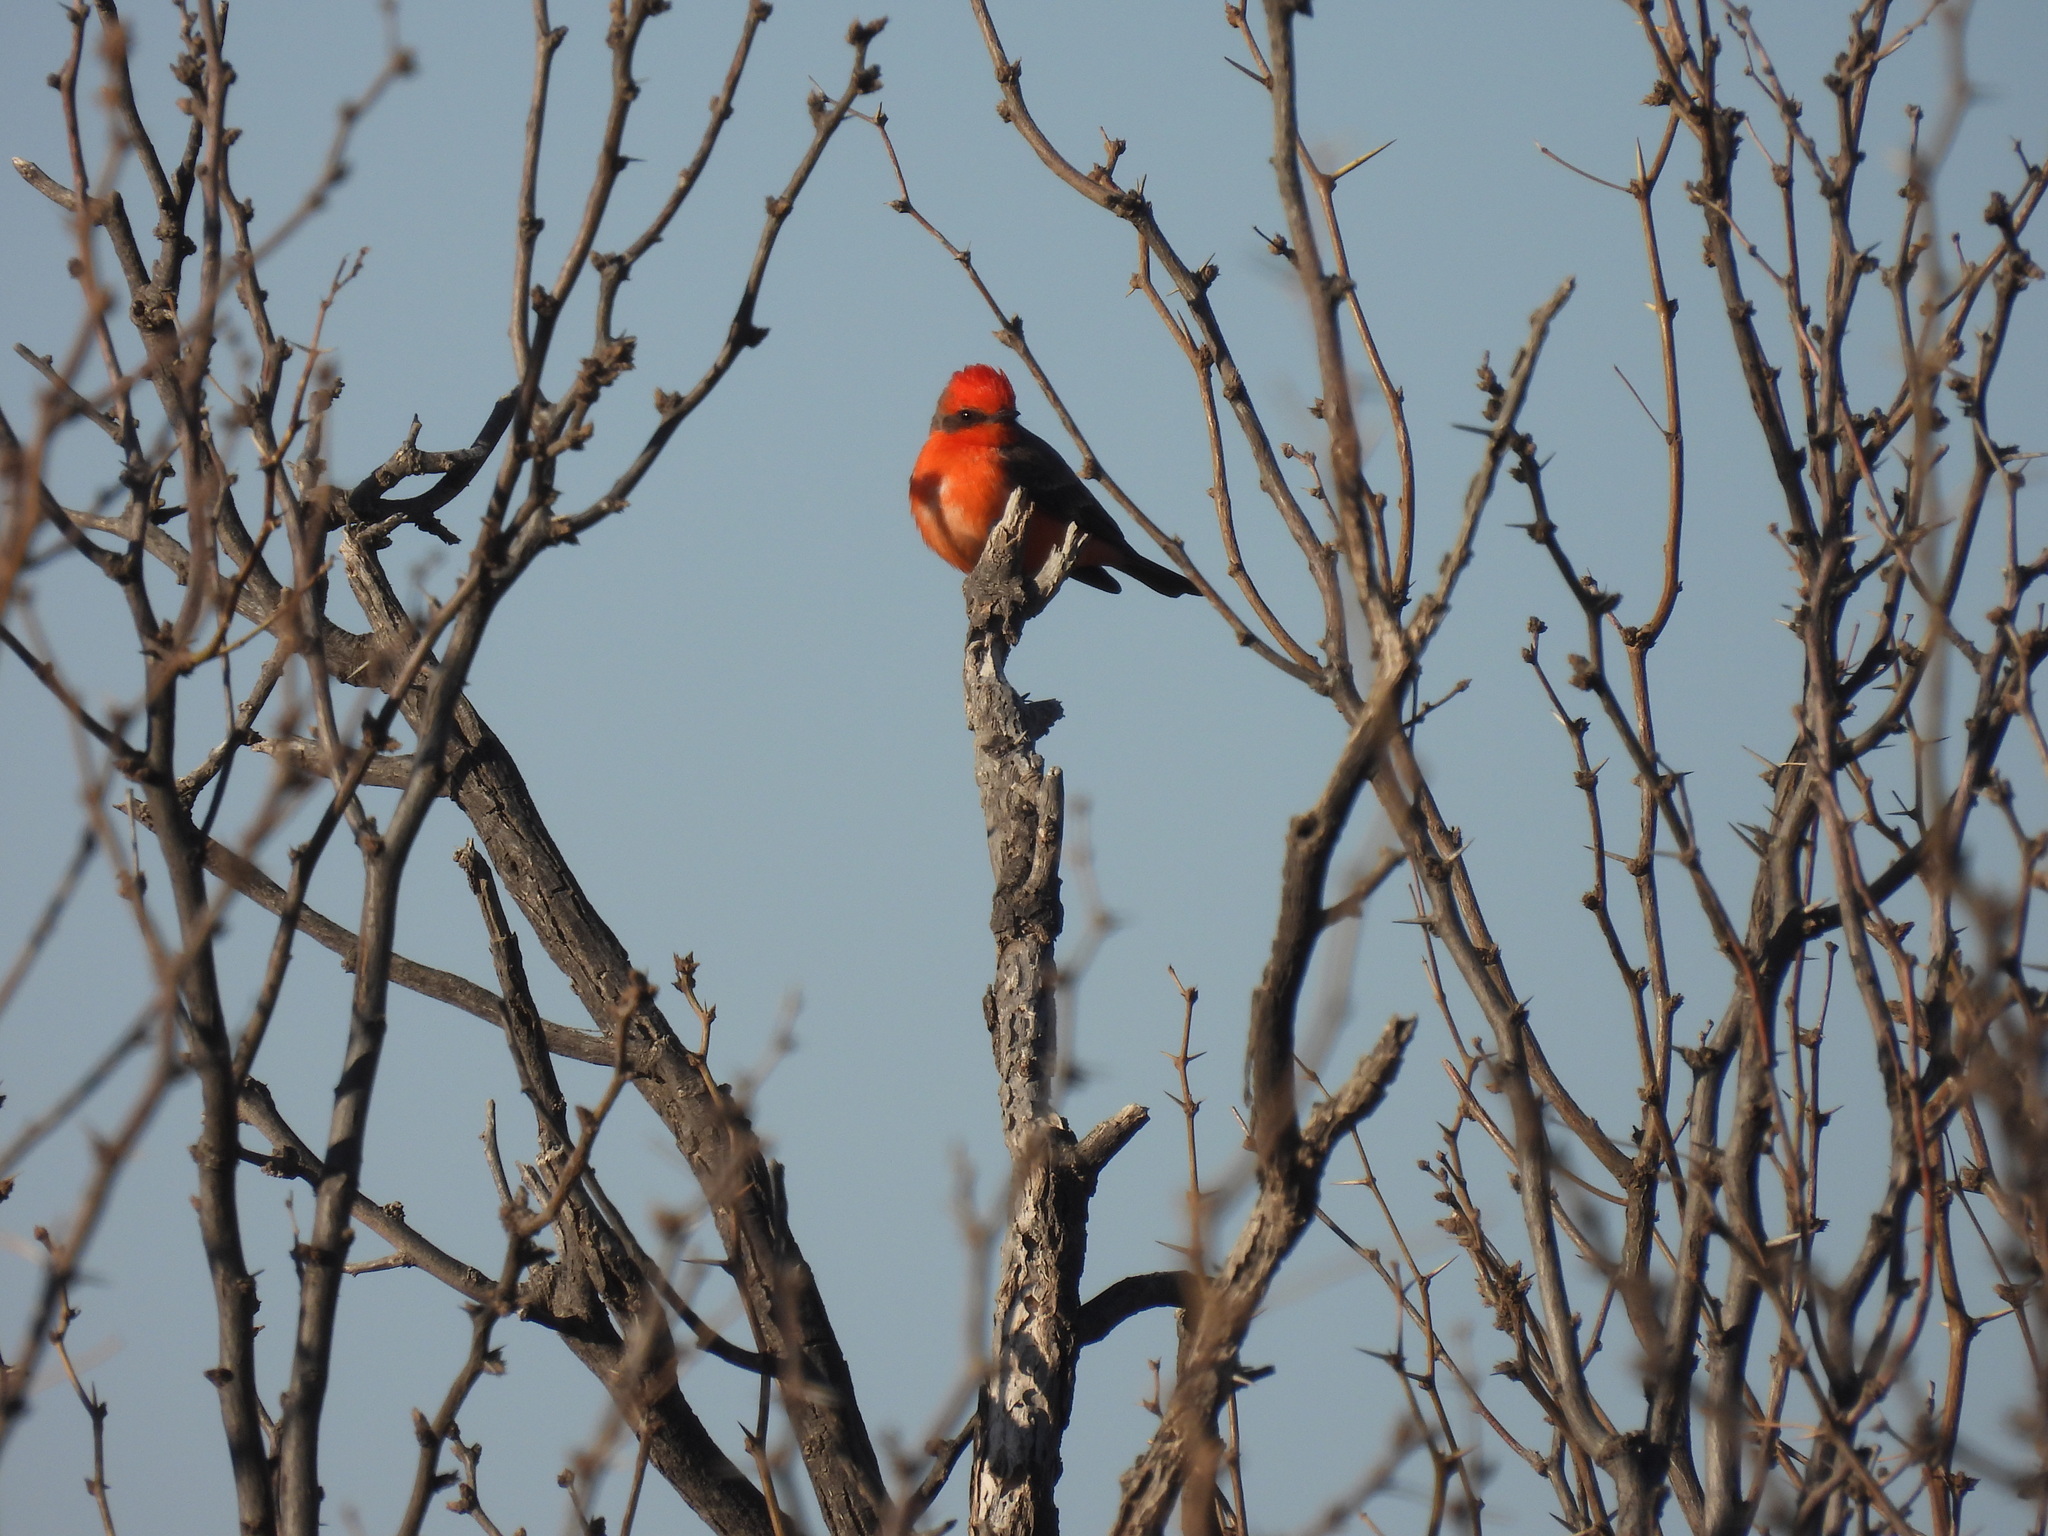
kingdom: Animalia
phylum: Chordata
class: Aves
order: Passeriformes
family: Tyrannidae
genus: Pyrocephalus
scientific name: Pyrocephalus rubinus
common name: Vermilion flycatcher
